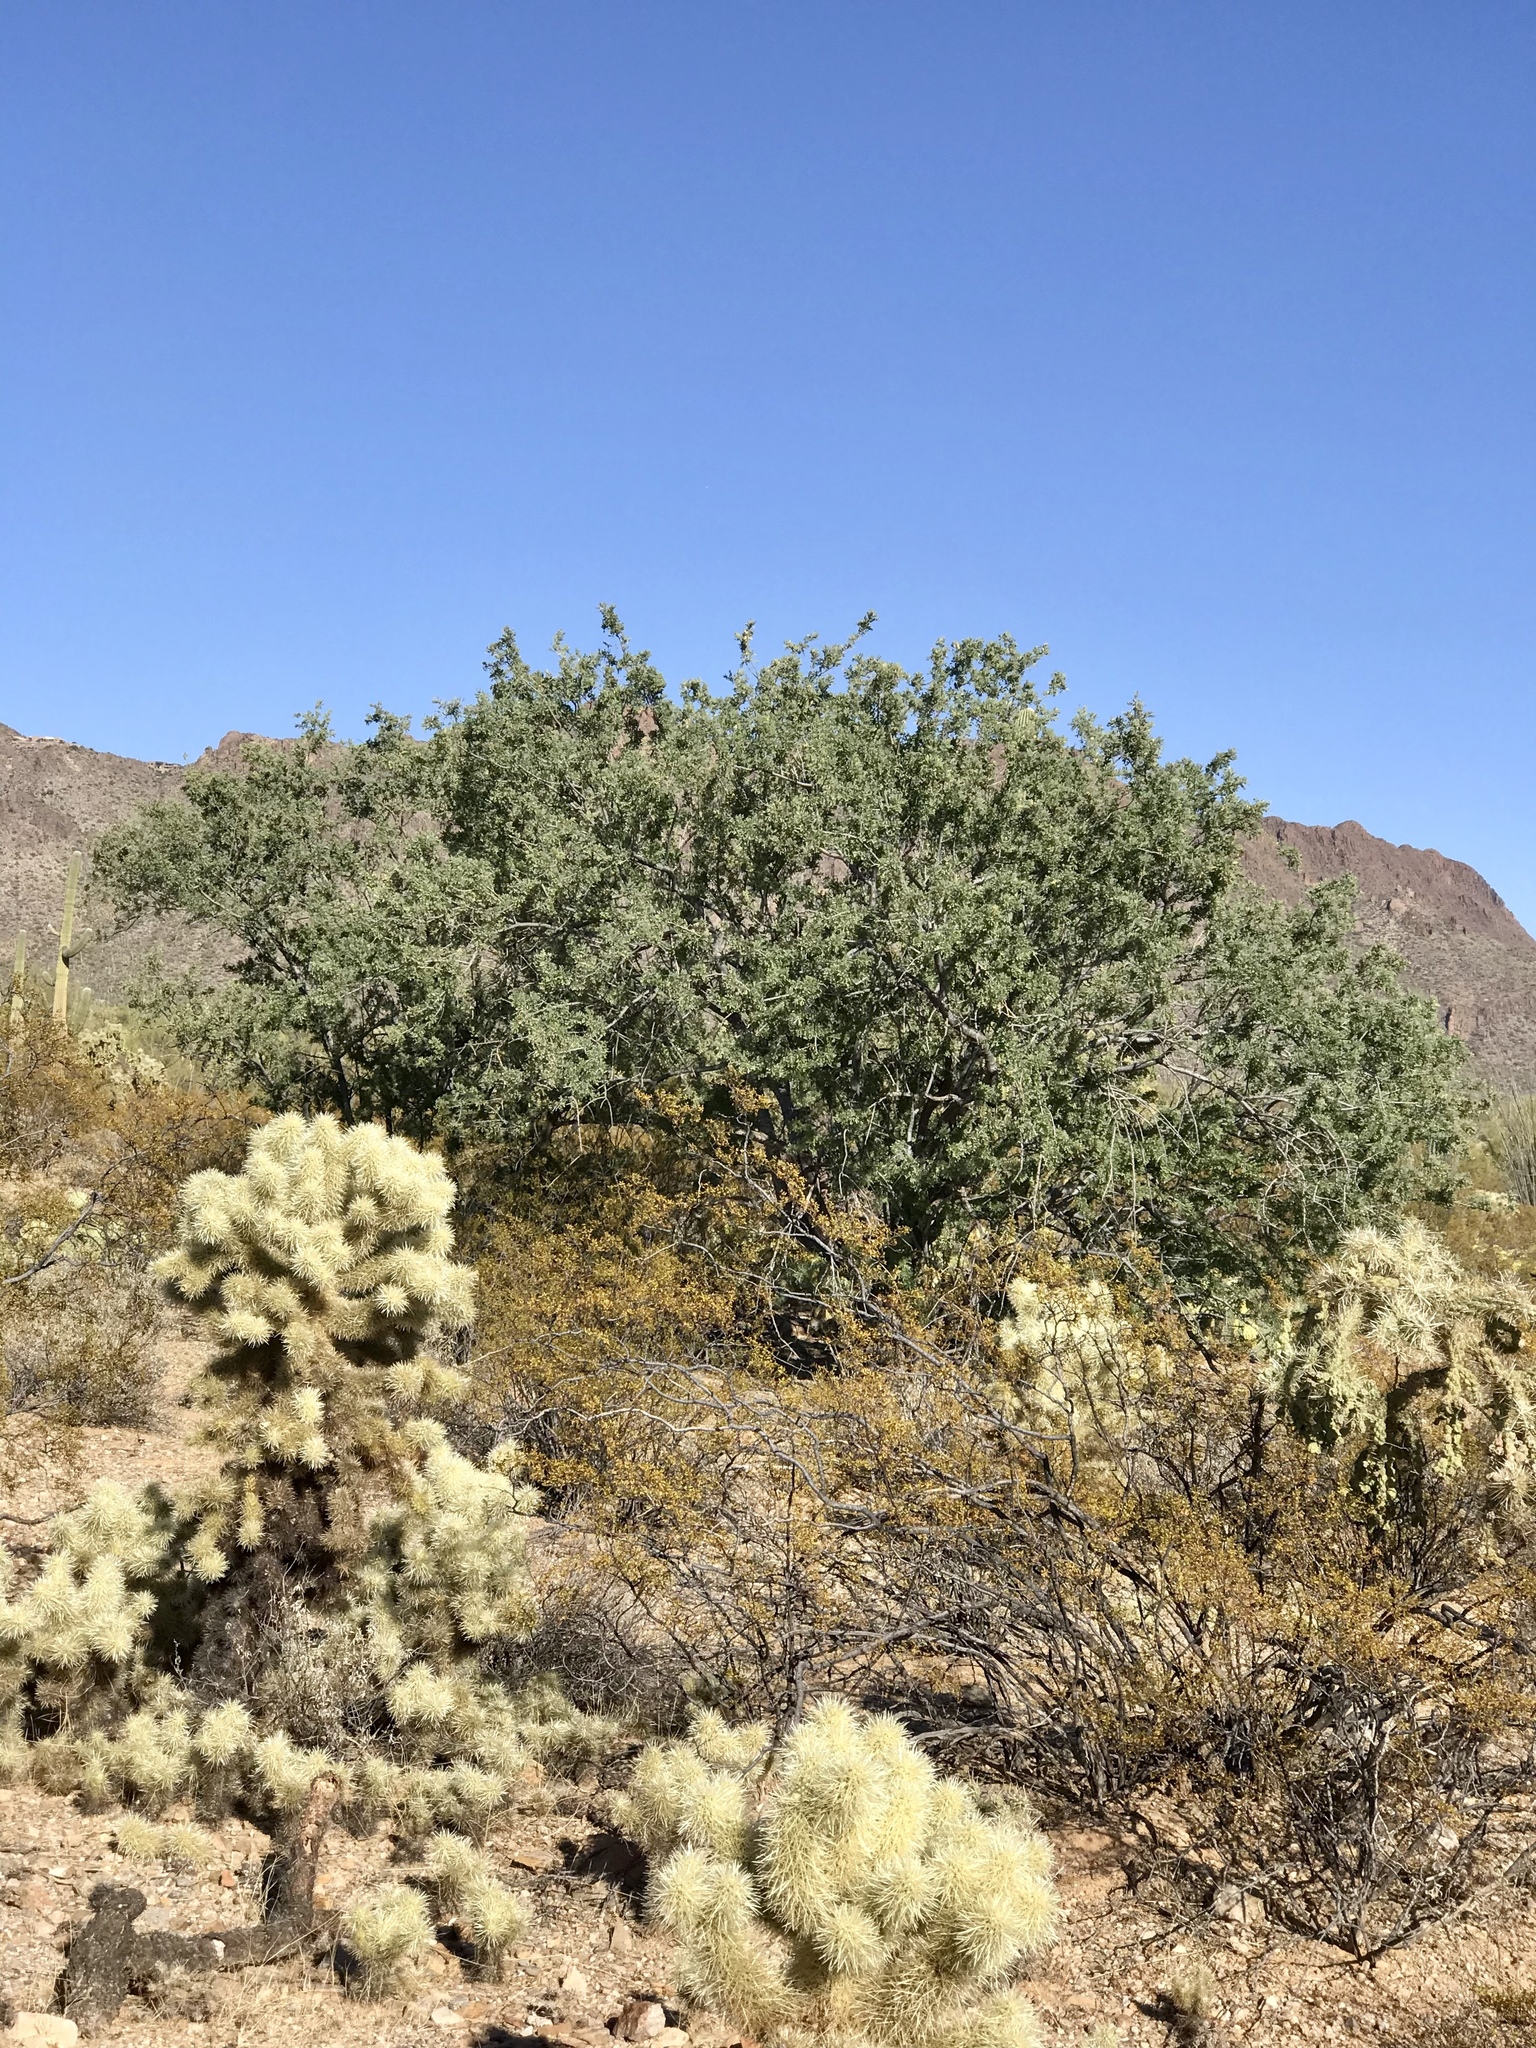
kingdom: Plantae
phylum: Tracheophyta
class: Magnoliopsida
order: Fabales
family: Fabaceae
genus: Olneya
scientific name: Olneya tesota
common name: Desert ironwood
